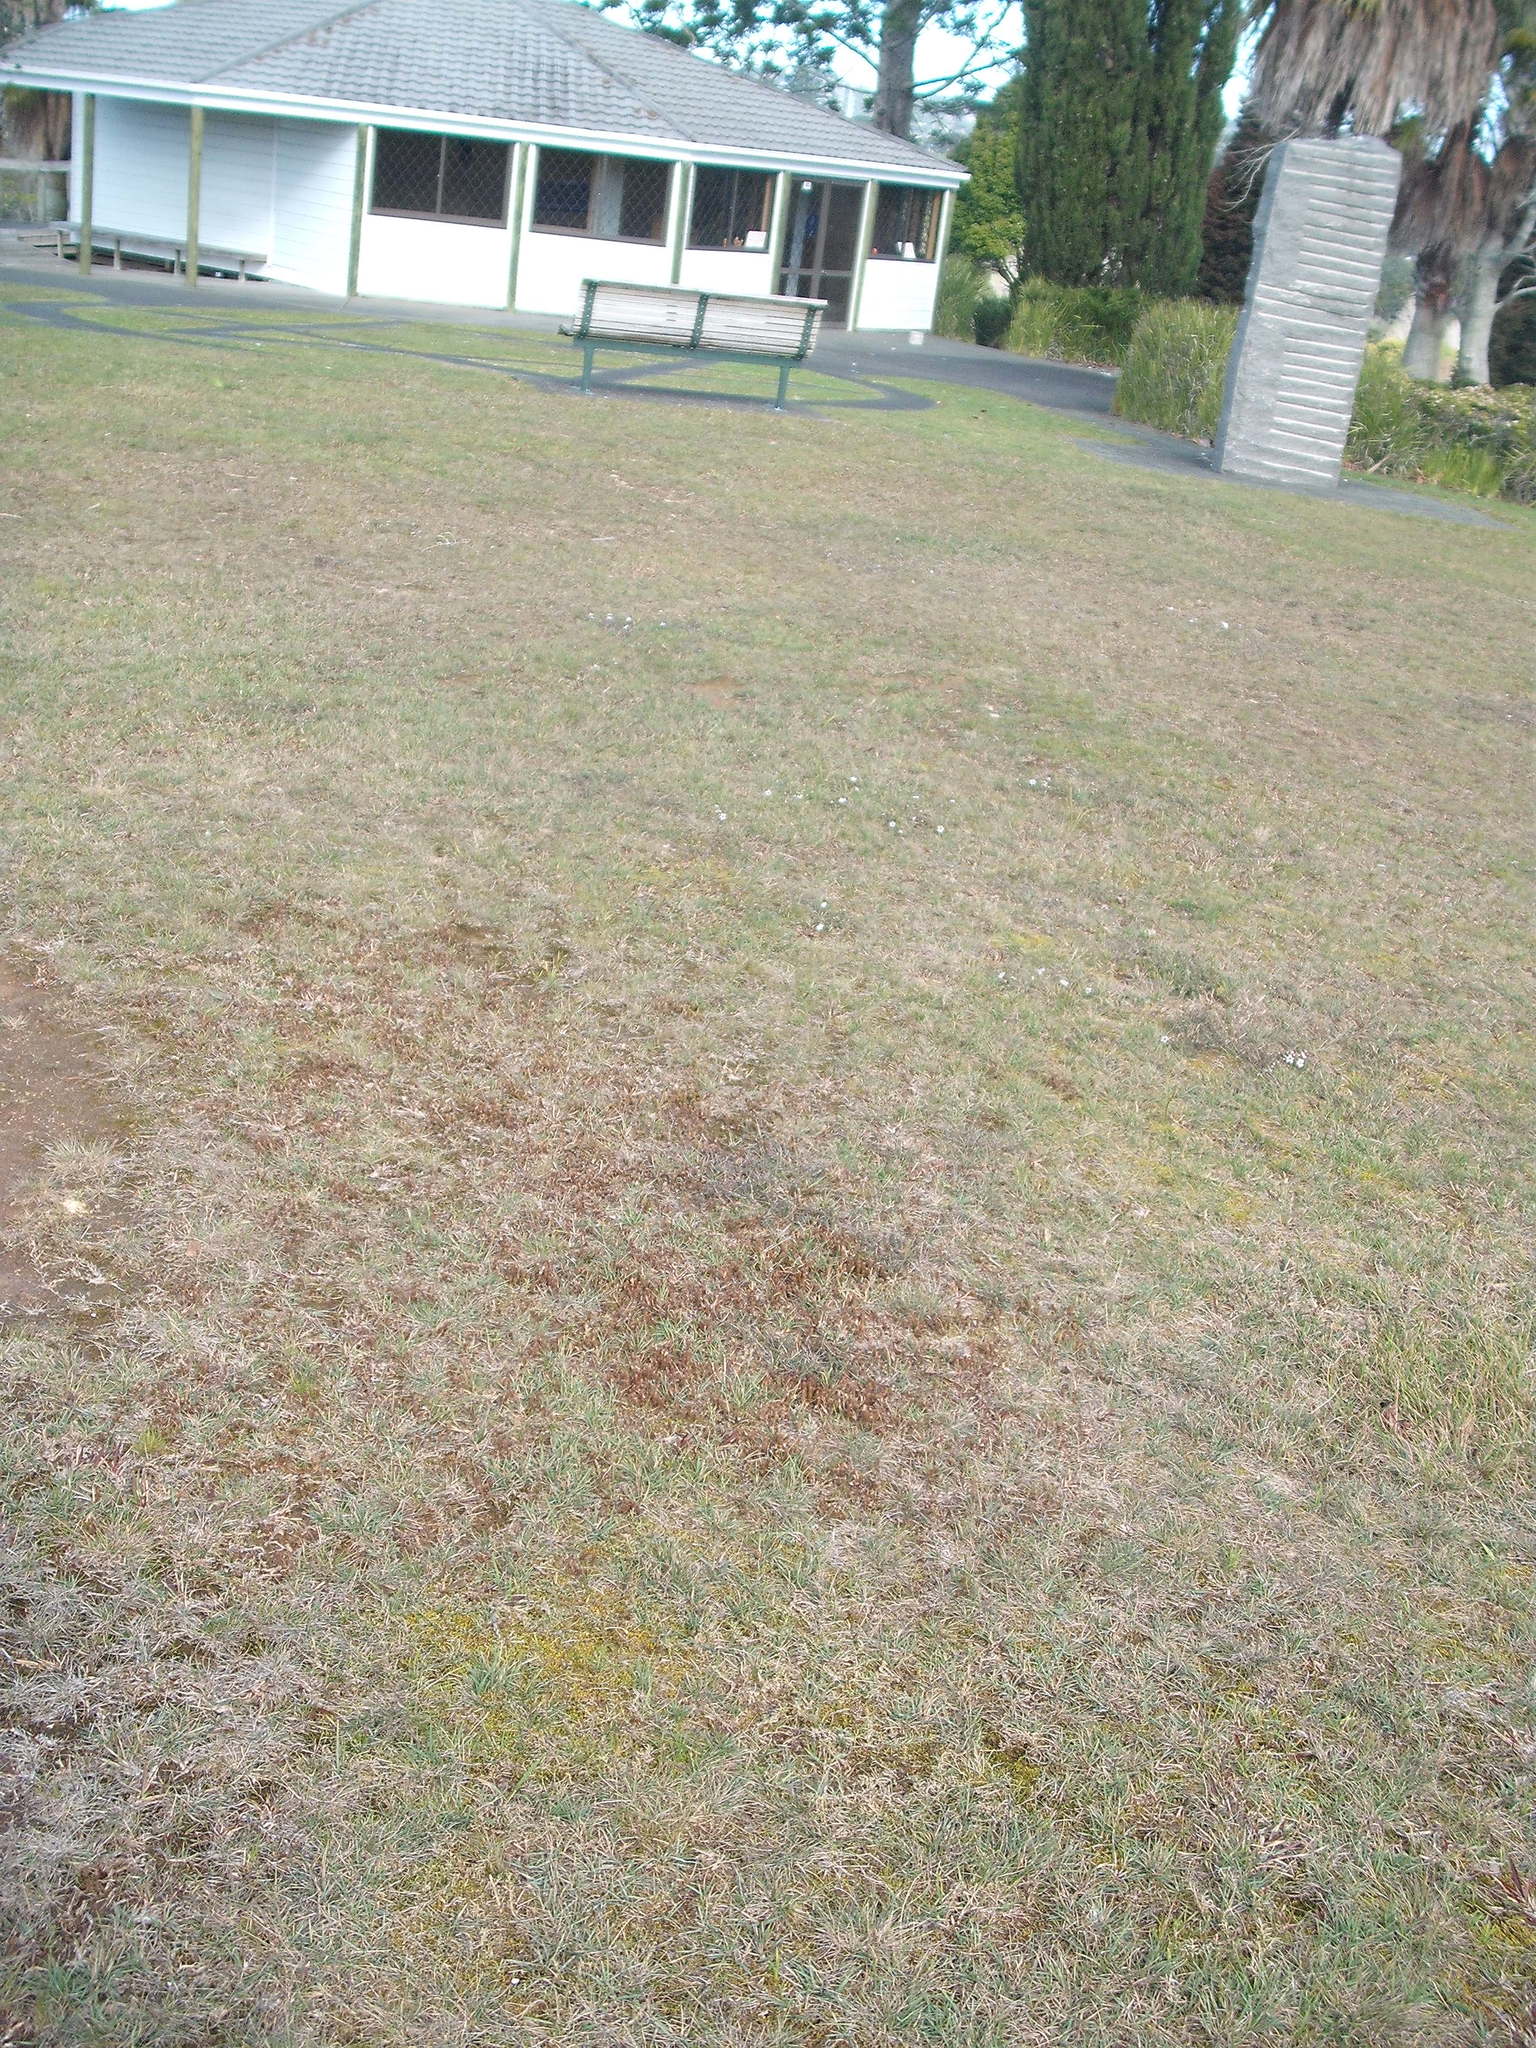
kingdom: Plantae
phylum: Tracheophyta
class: Magnoliopsida
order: Ericales
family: Ericaceae
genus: Styphelia
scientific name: Styphelia nesophila
